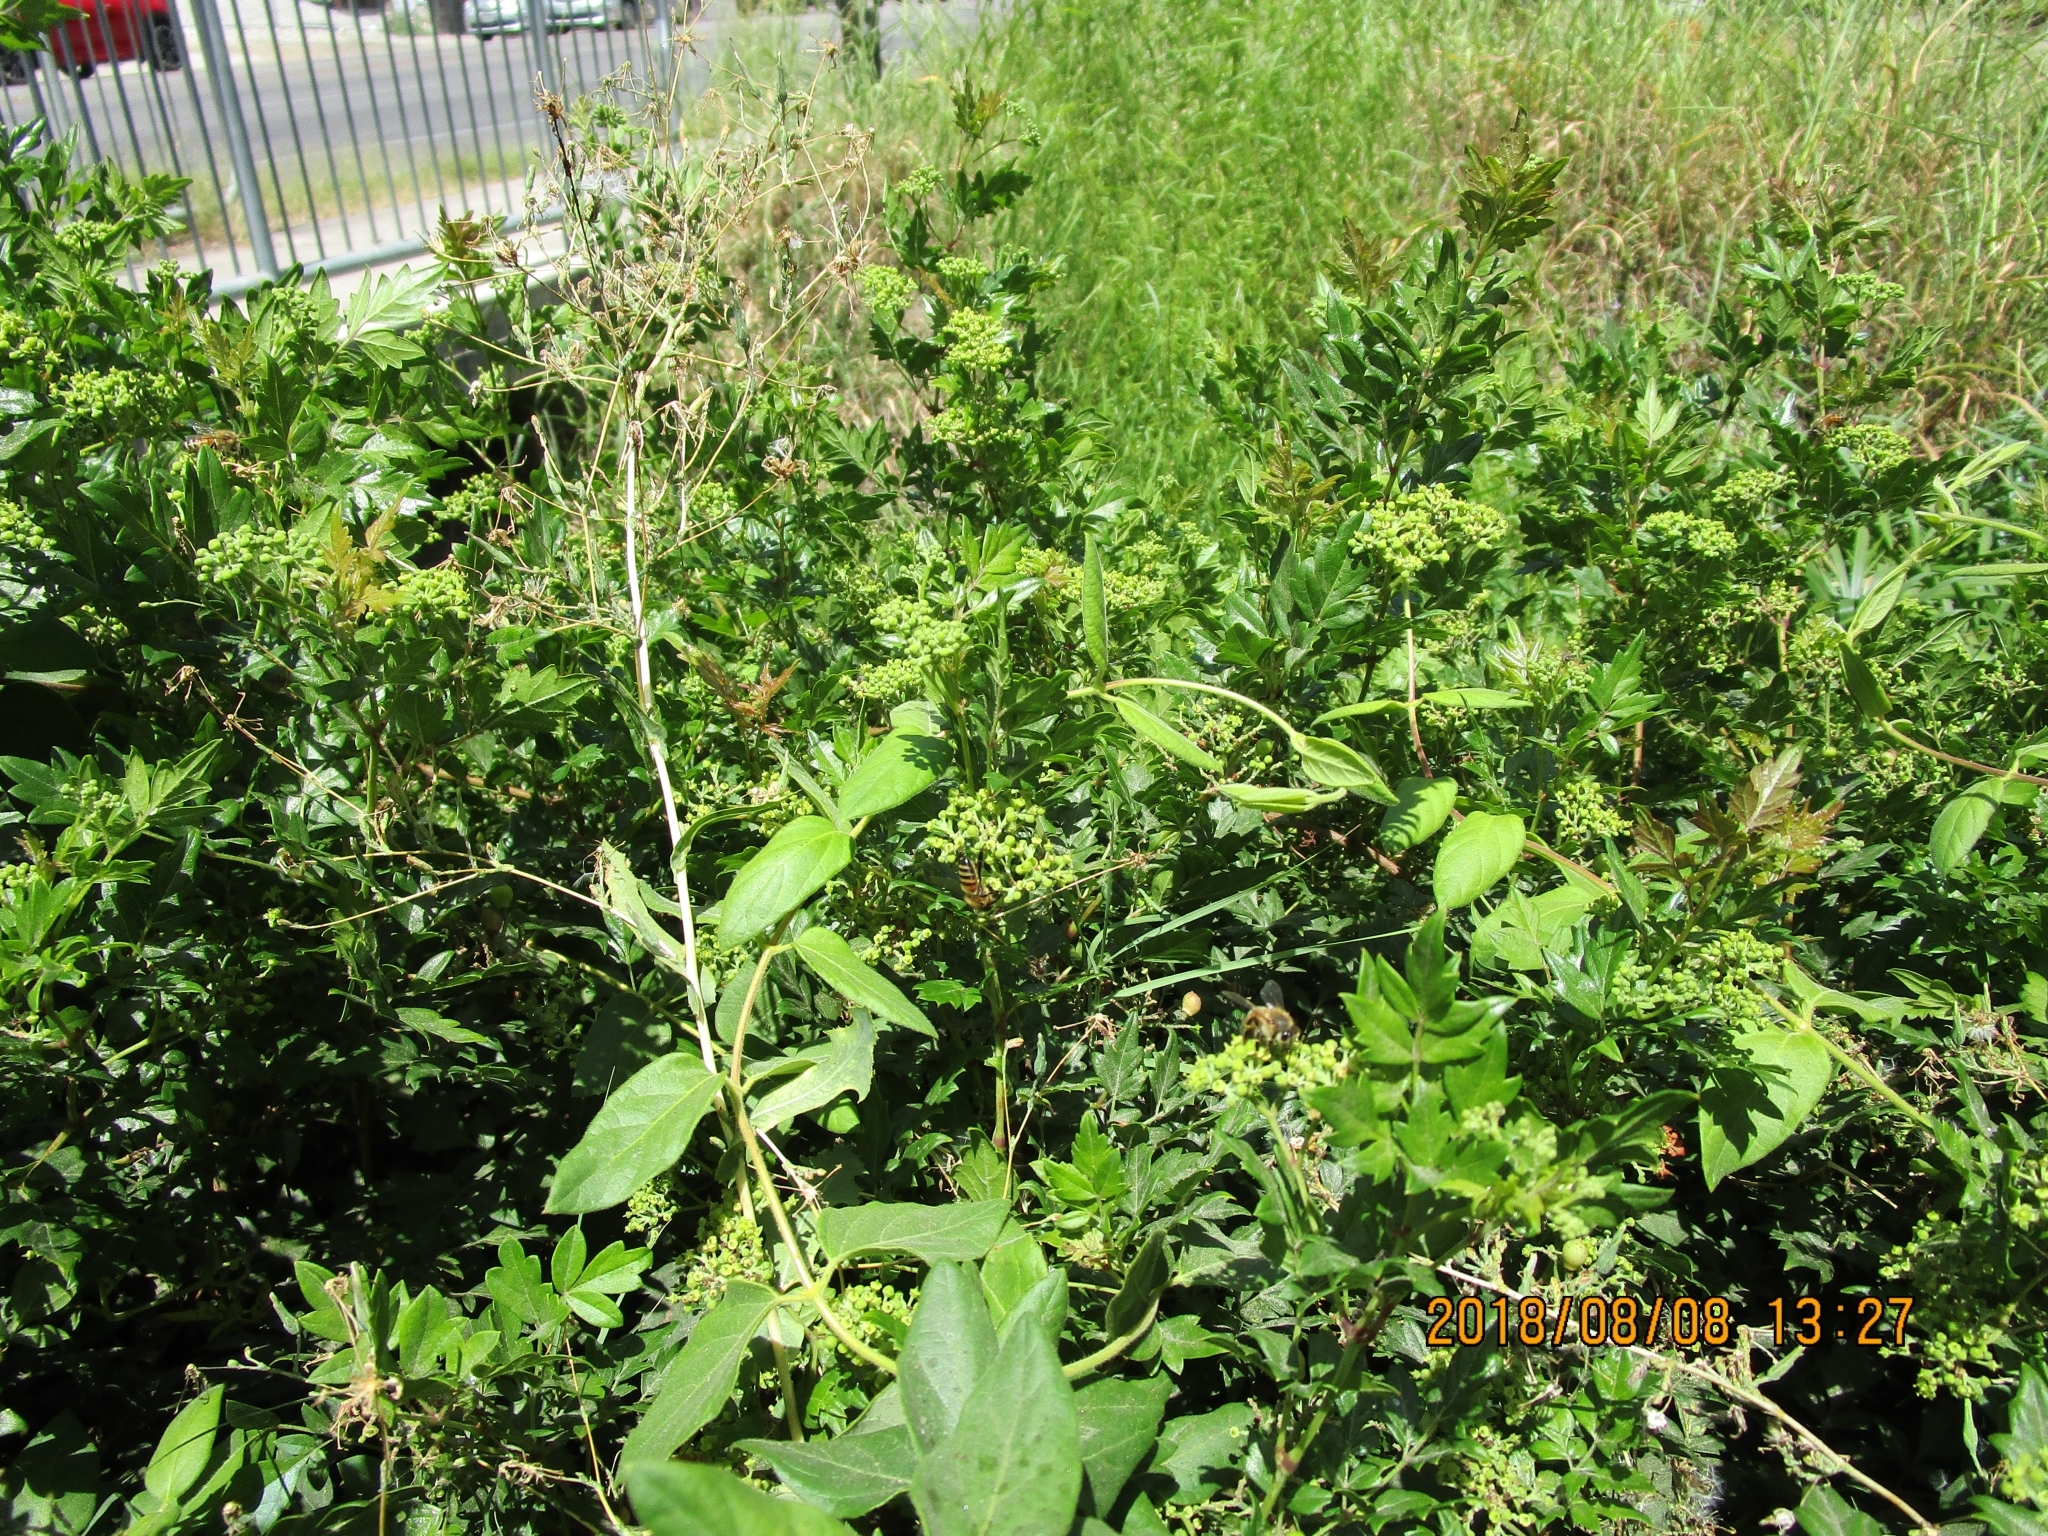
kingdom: Plantae
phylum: Tracheophyta
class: Magnoliopsida
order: Vitales
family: Vitaceae
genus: Nekemias
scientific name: Nekemias arborea
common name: Peppervine
